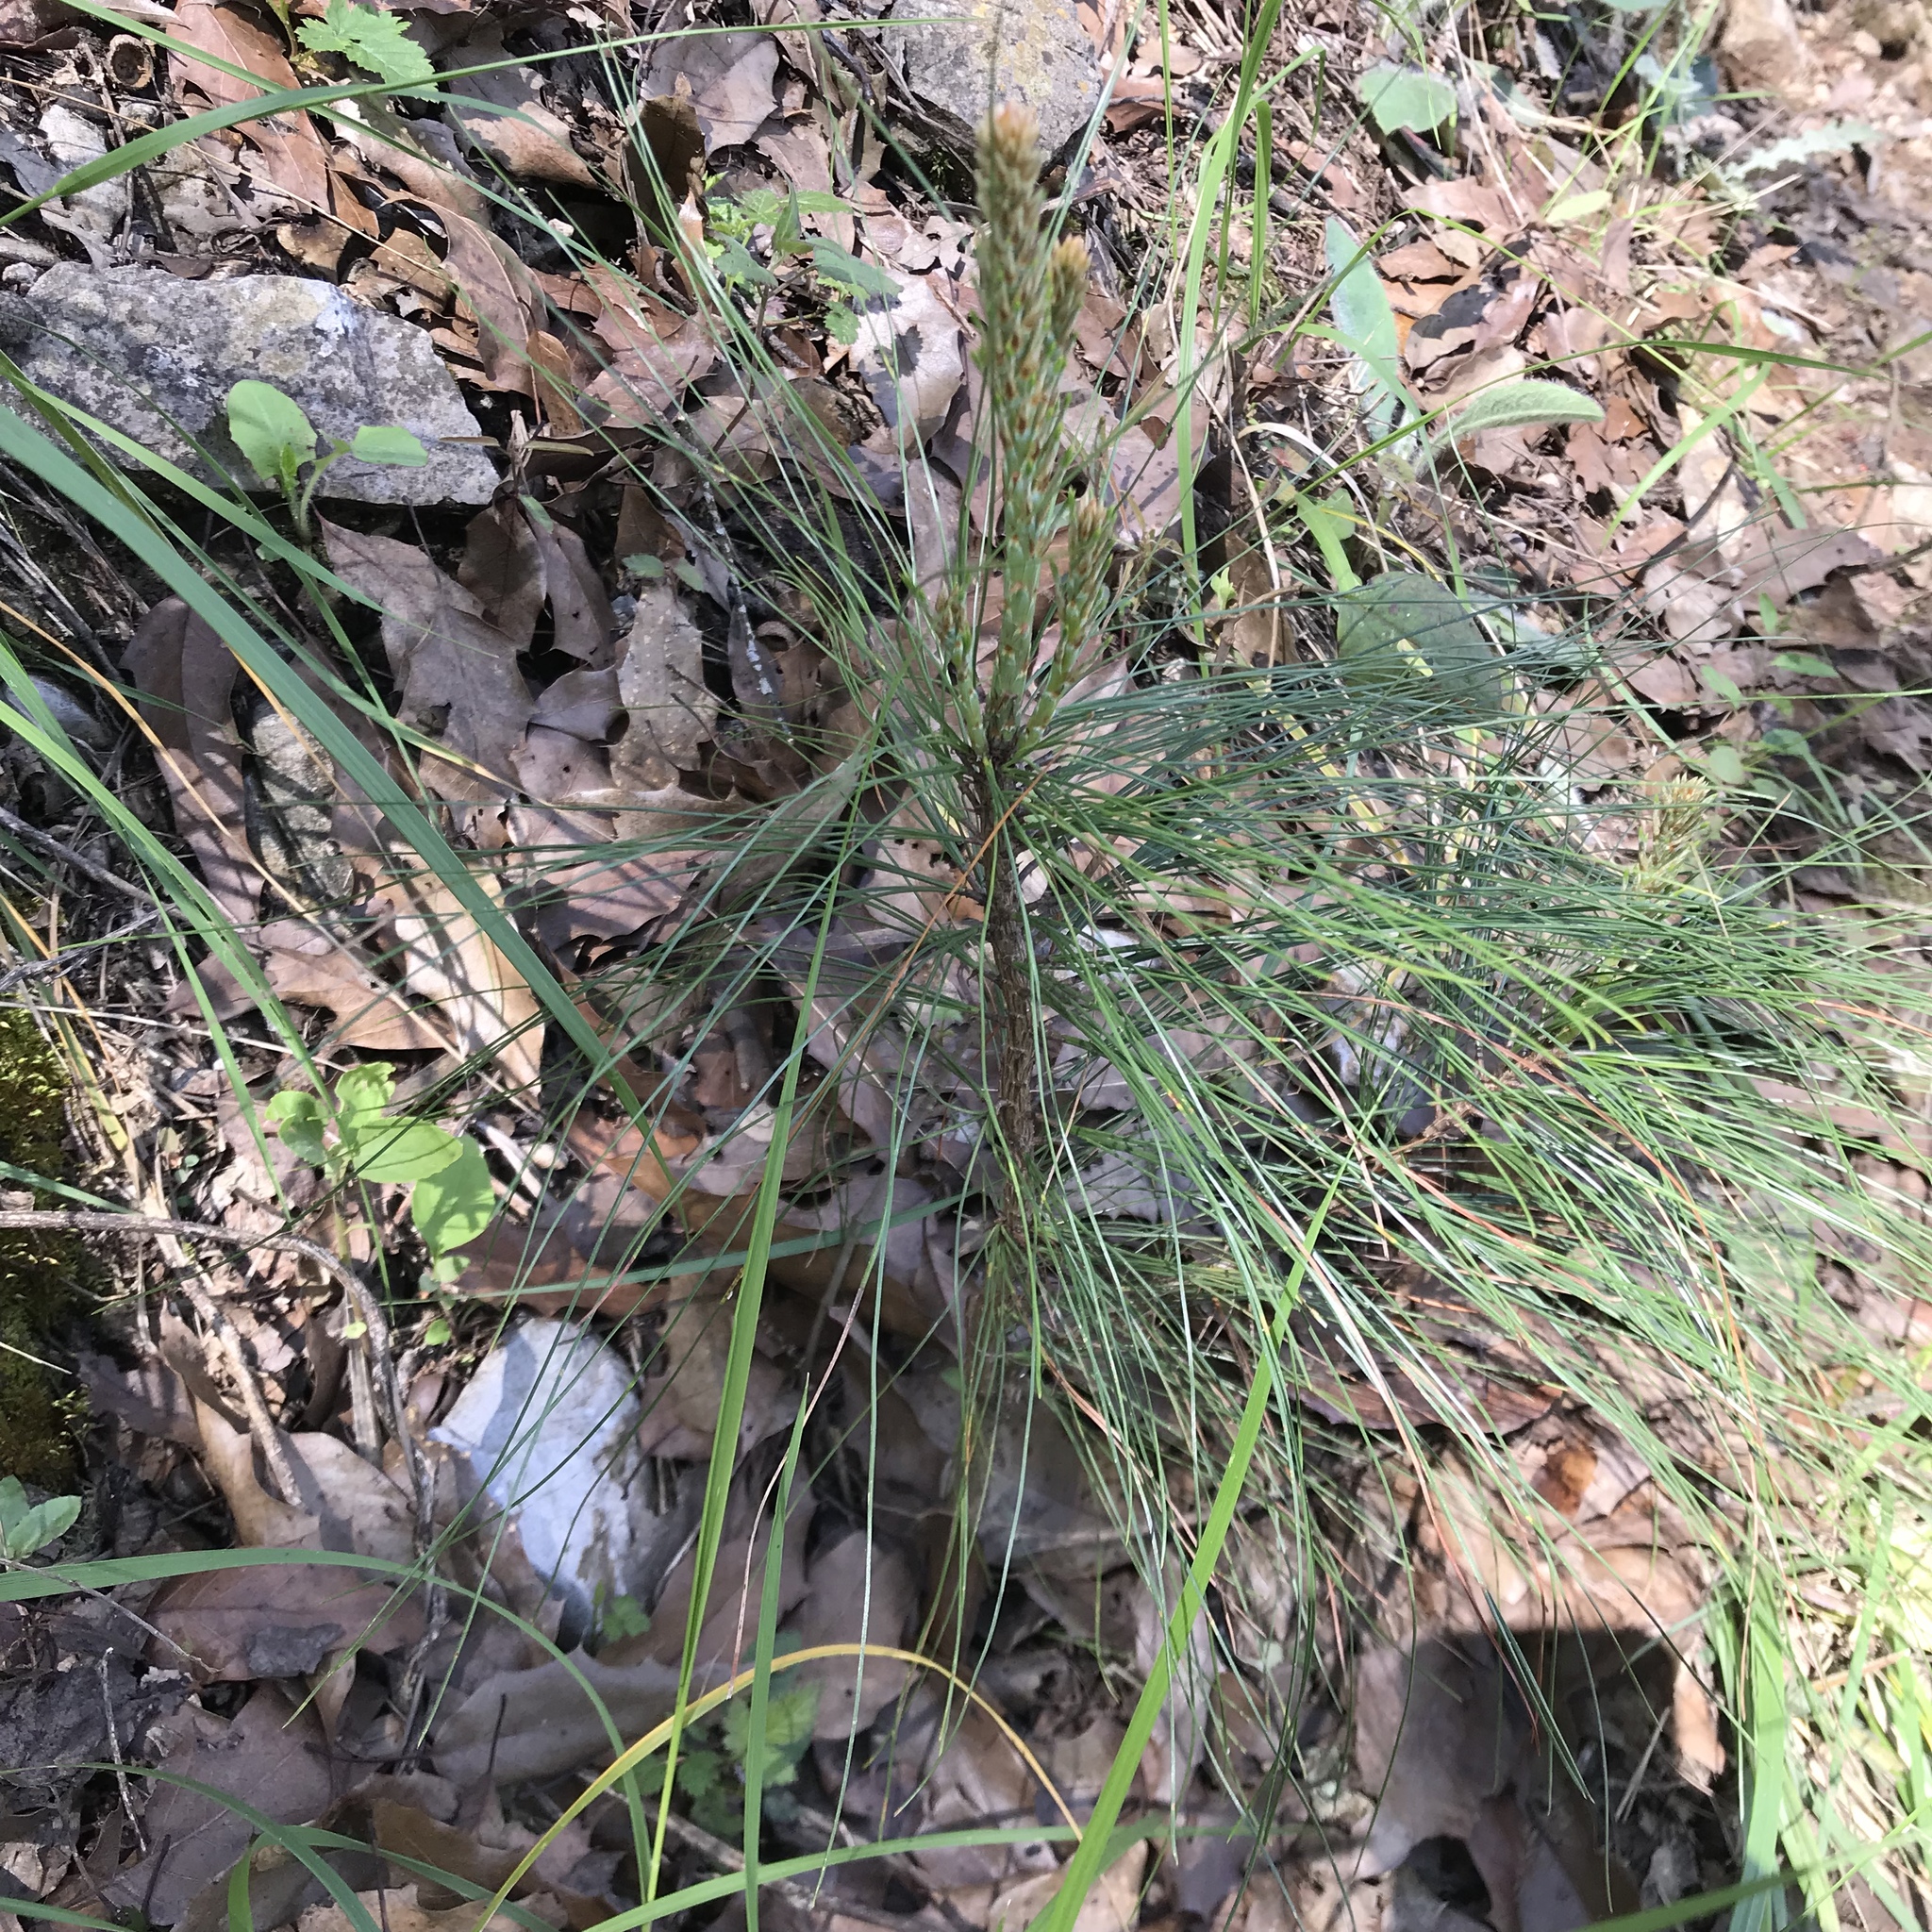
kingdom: Plantae
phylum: Tracheophyta
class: Pinopsida
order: Pinales
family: Pinaceae
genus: Pinus
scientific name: Pinus pseudostrobus
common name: False weymouth pine
